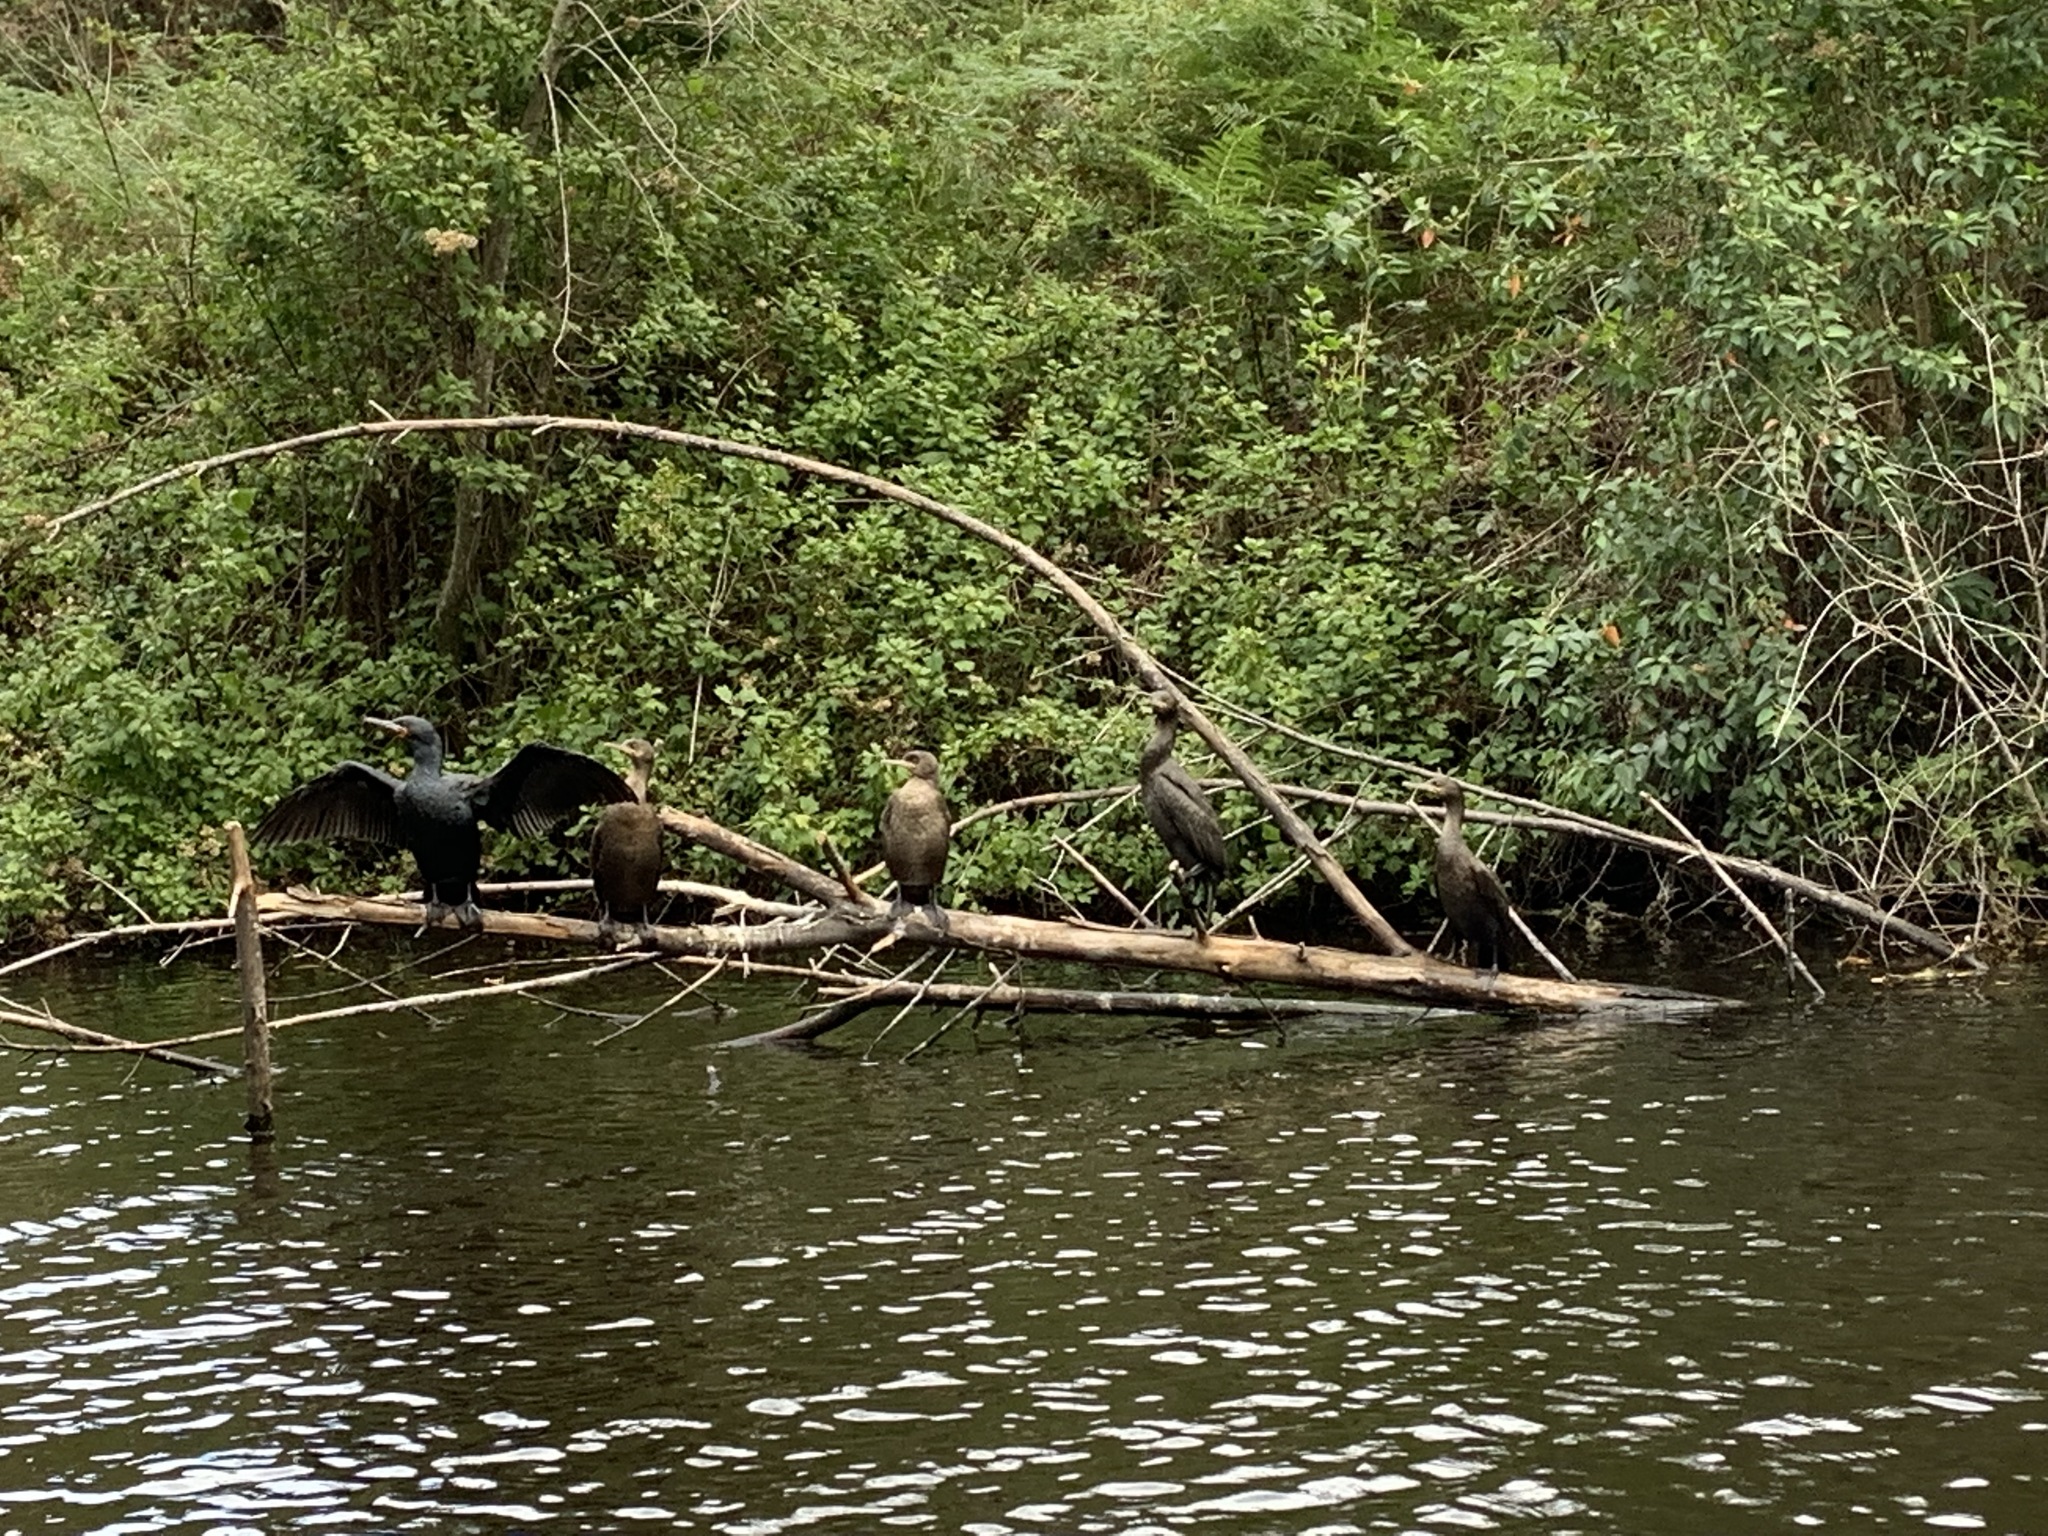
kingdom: Animalia
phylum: Chordata
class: Aves
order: Suliformes
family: Phalacrocoracidae
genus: Phalacrocorax
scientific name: Phalacrocorax capensis
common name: Cape cormorant
